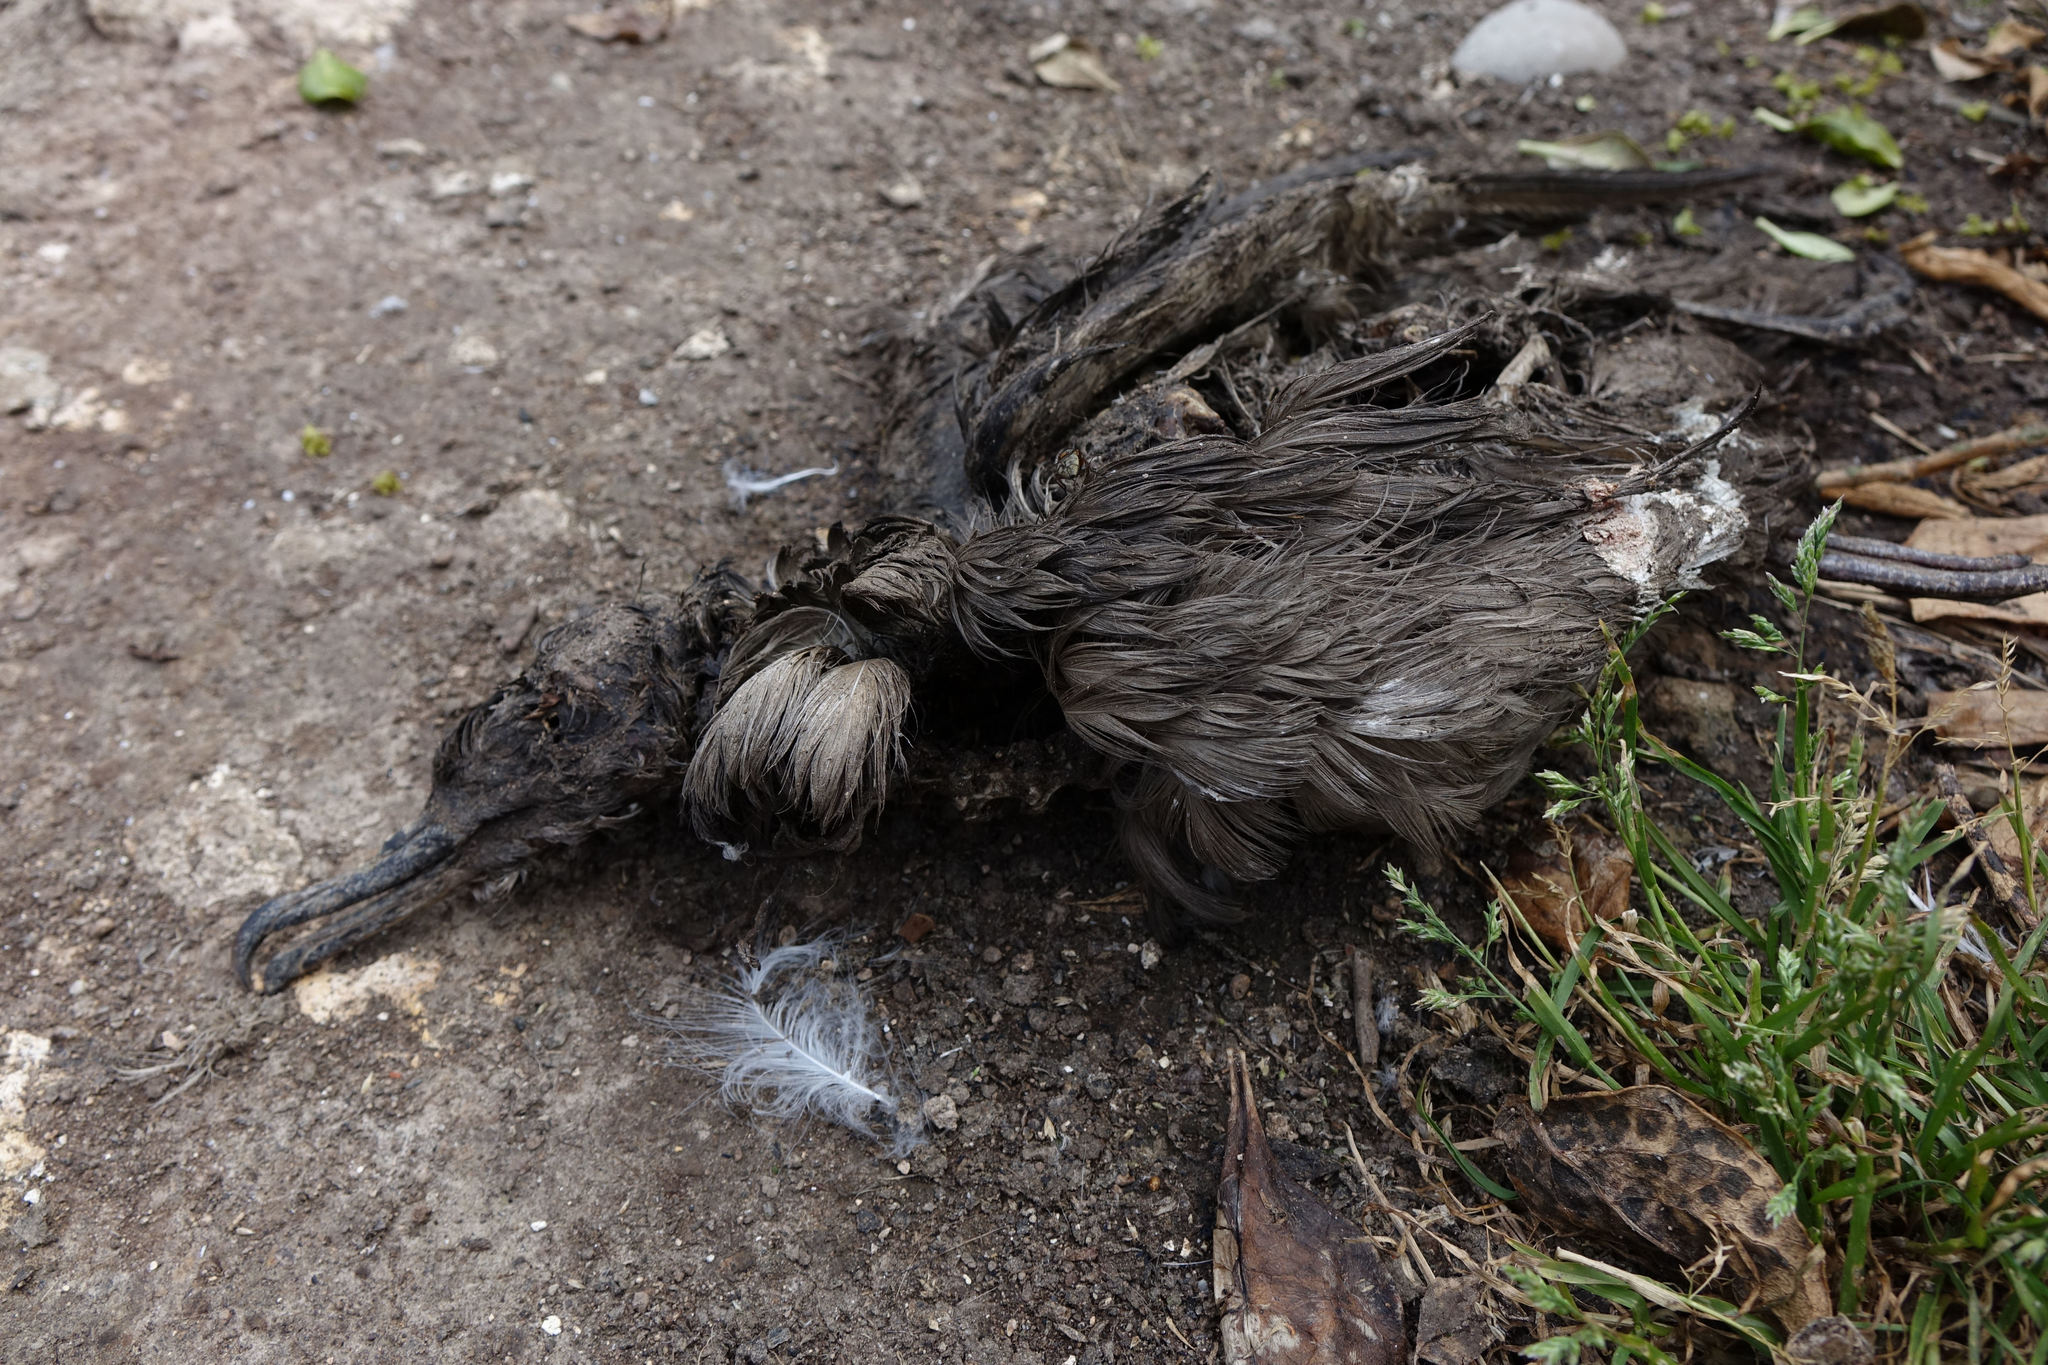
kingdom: Animalia
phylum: Chordata
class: Aves
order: Procellariiformes
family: Procellariidae
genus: Puffinus
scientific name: Puffinus griseus
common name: Sooty shearwater
